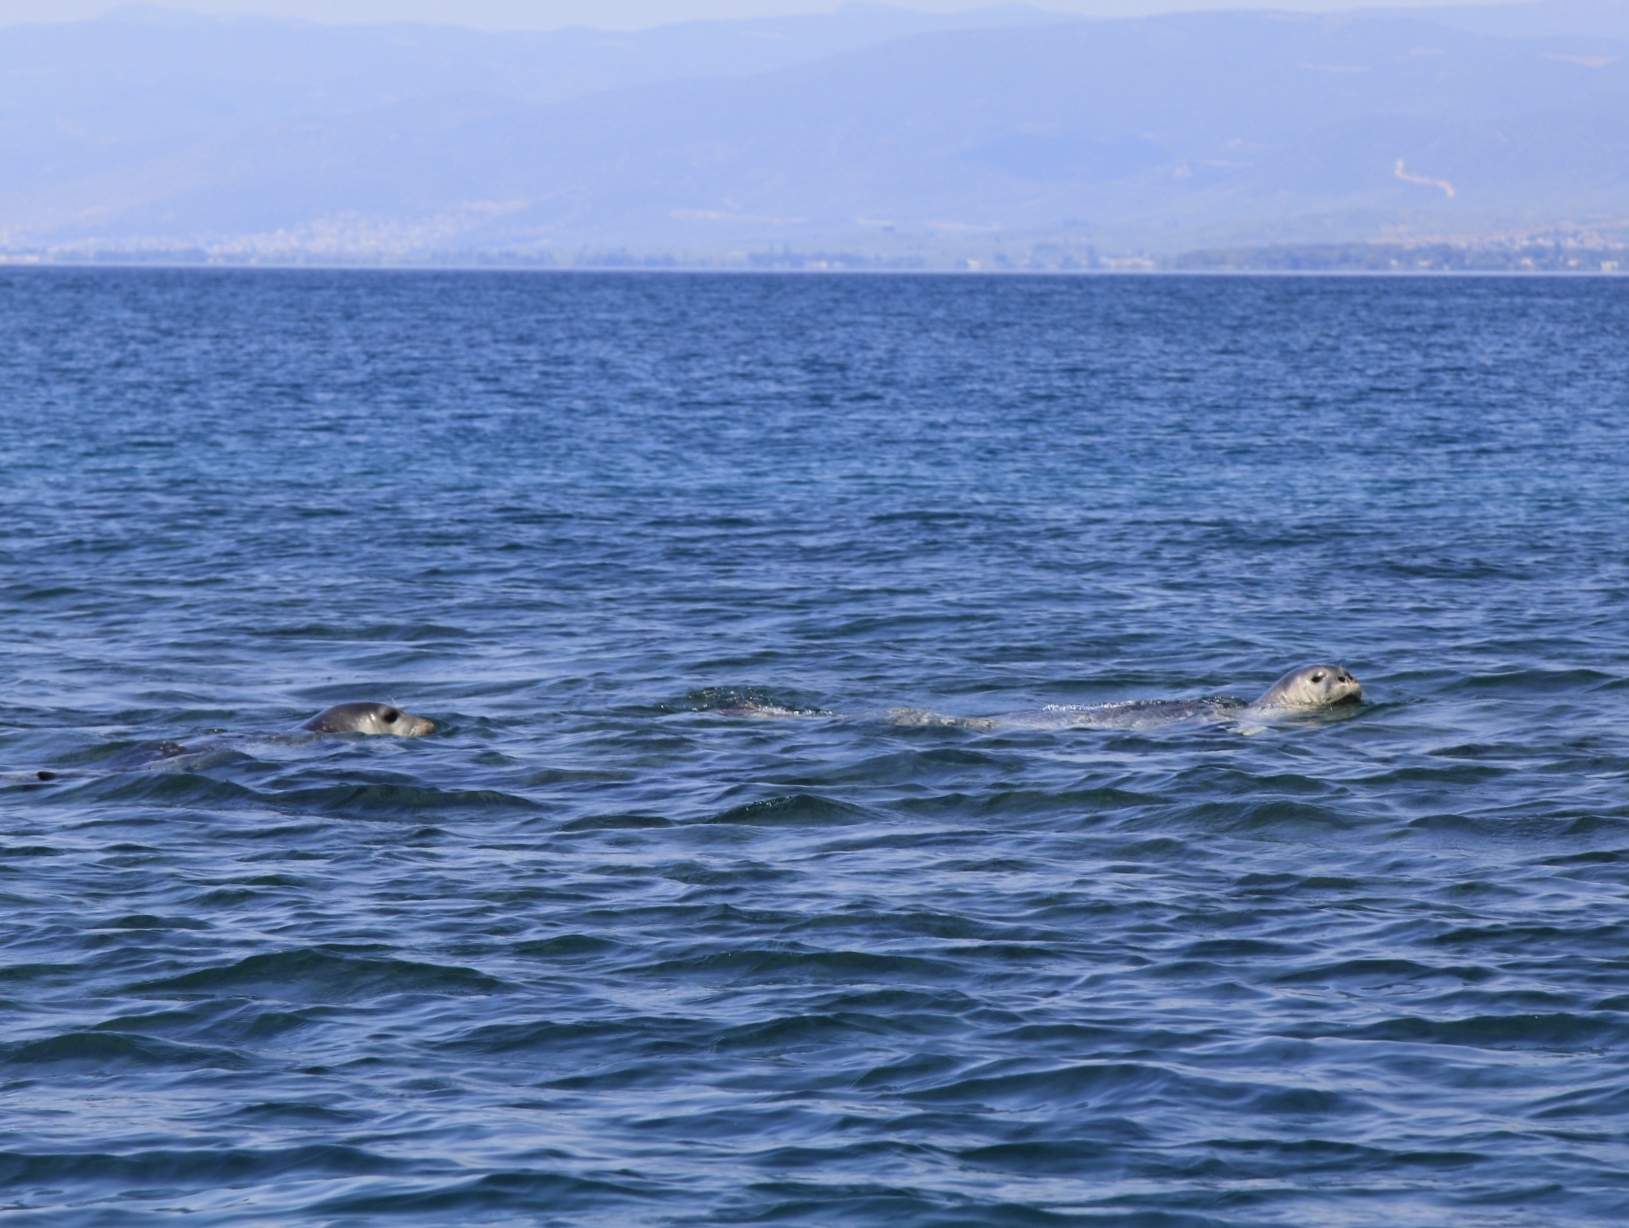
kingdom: Animalia
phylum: Chordata
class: Mammalia
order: Carnivora
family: Phocidae
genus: Monachus
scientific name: Monachus monachus
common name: Mediterranean monk seal
